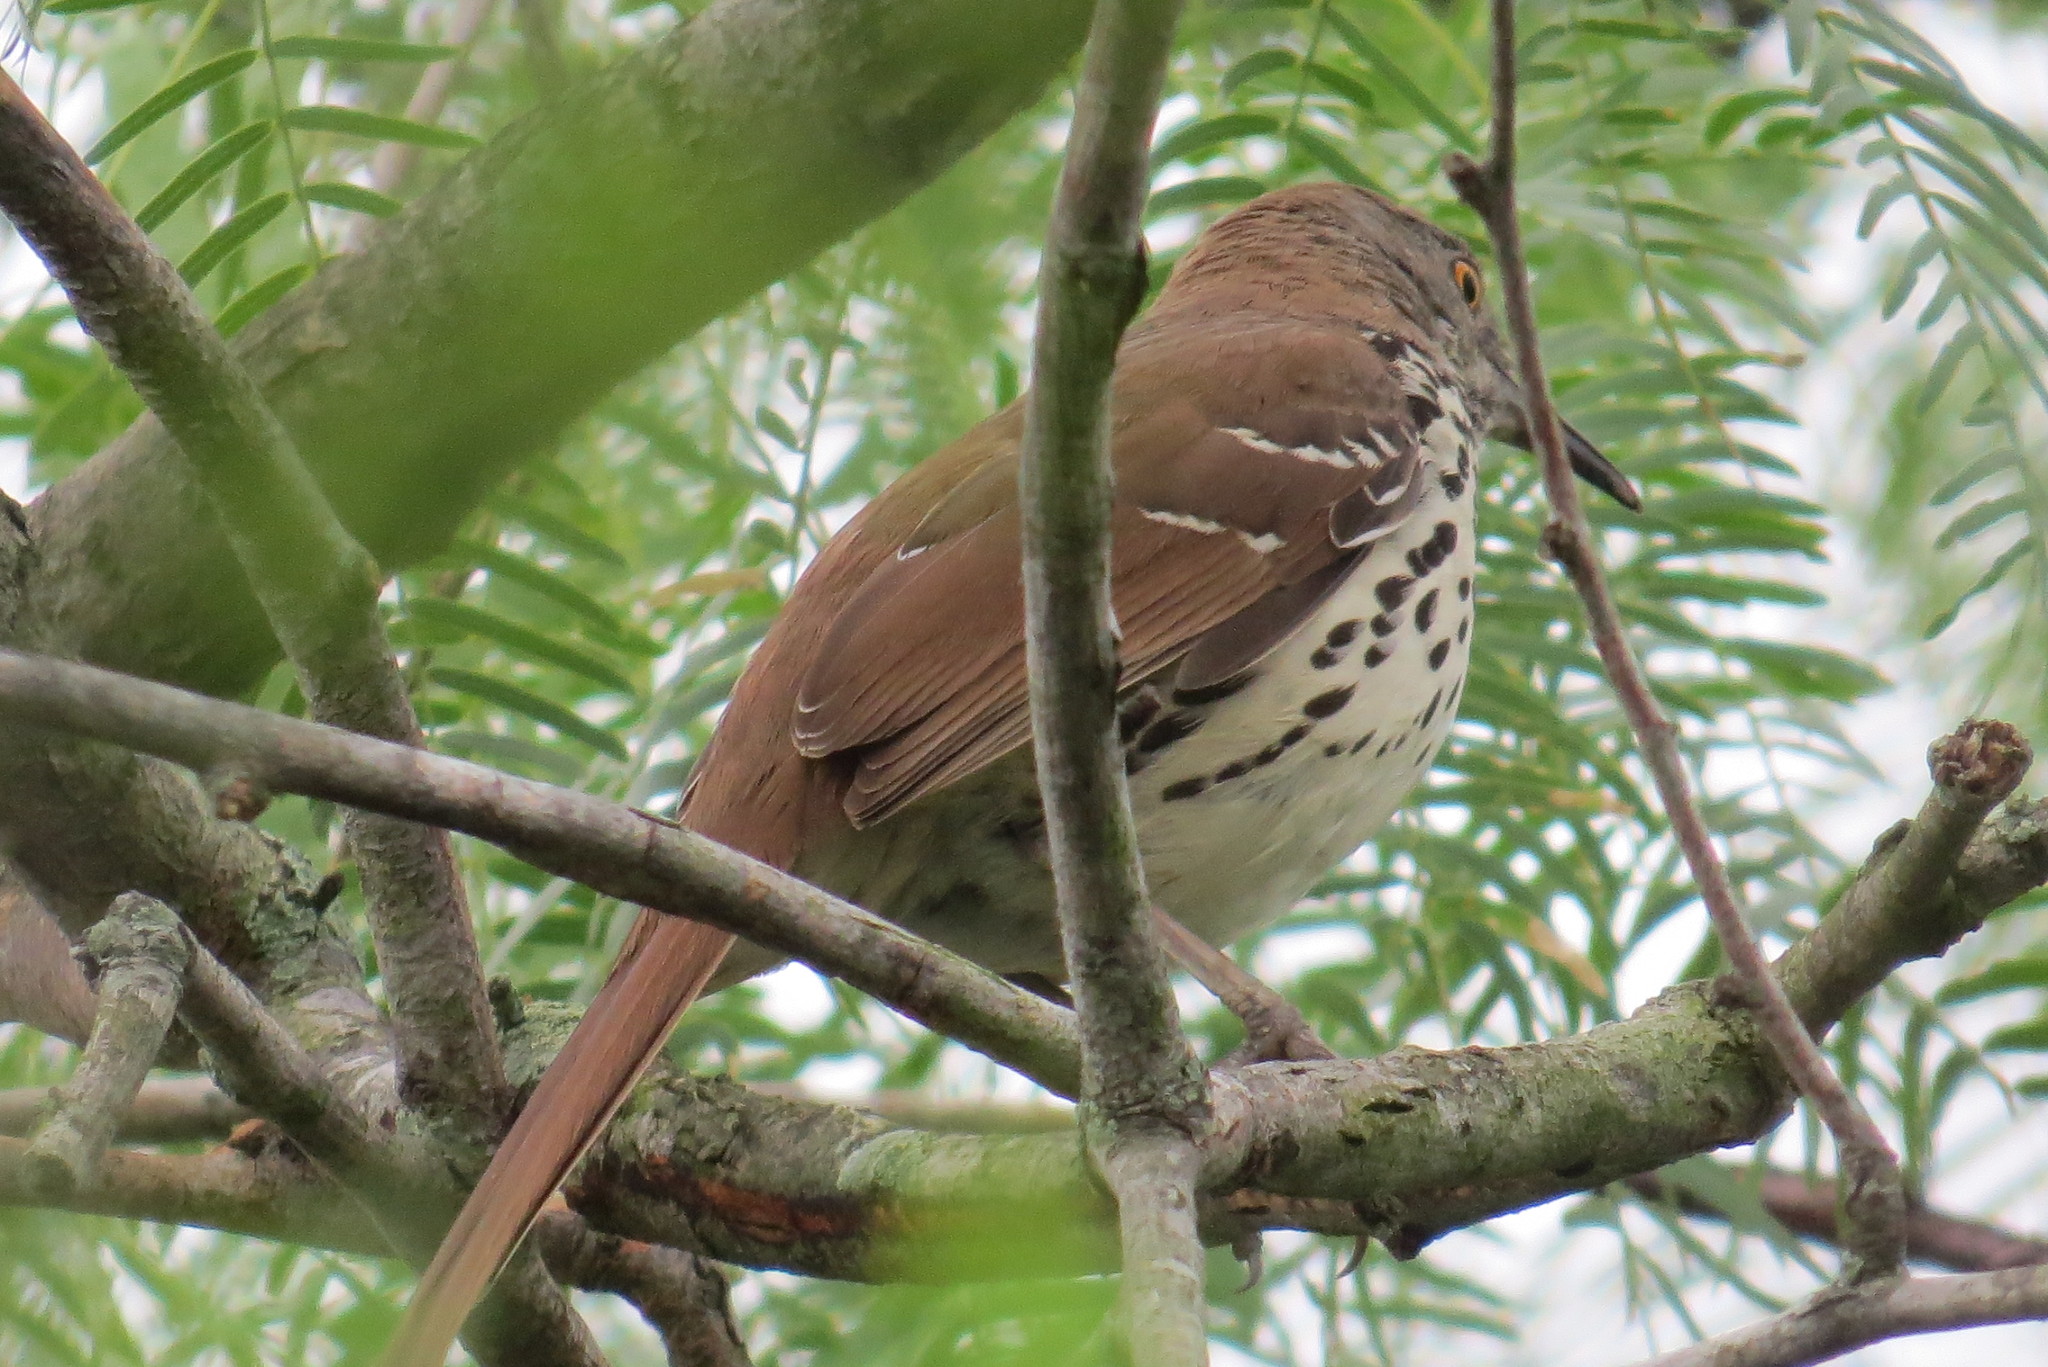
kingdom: Animalia
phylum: Chordata
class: Aves
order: Passeriformes
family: Mimidae
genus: Toxostoma
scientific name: Toxostoma longirostre
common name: Long-billed thrasher
